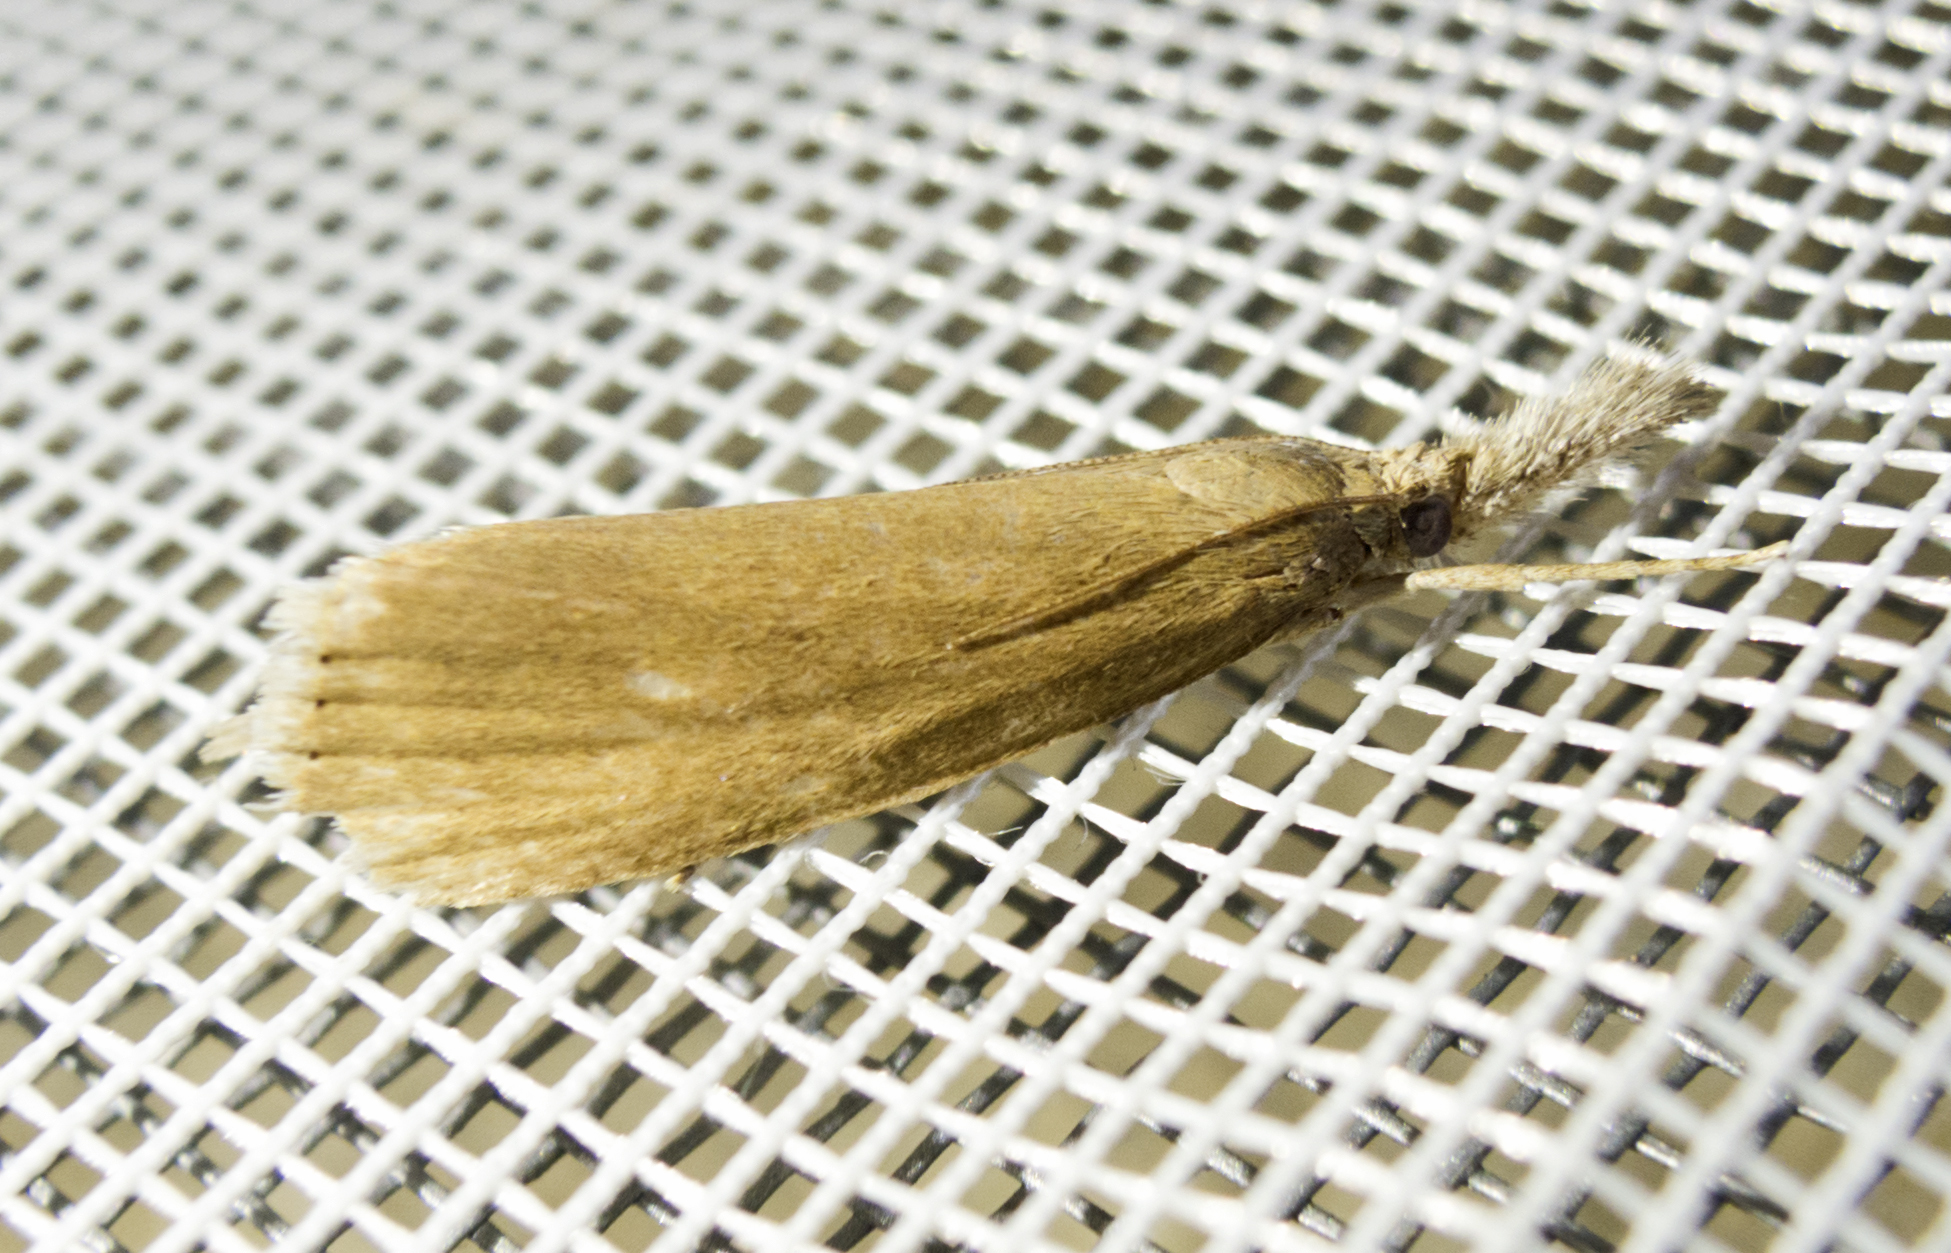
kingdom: Animalia
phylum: Arthropoda
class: Insecta
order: Lepidoptera
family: Crambidae
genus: Chilo
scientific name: Chilo luteellus
